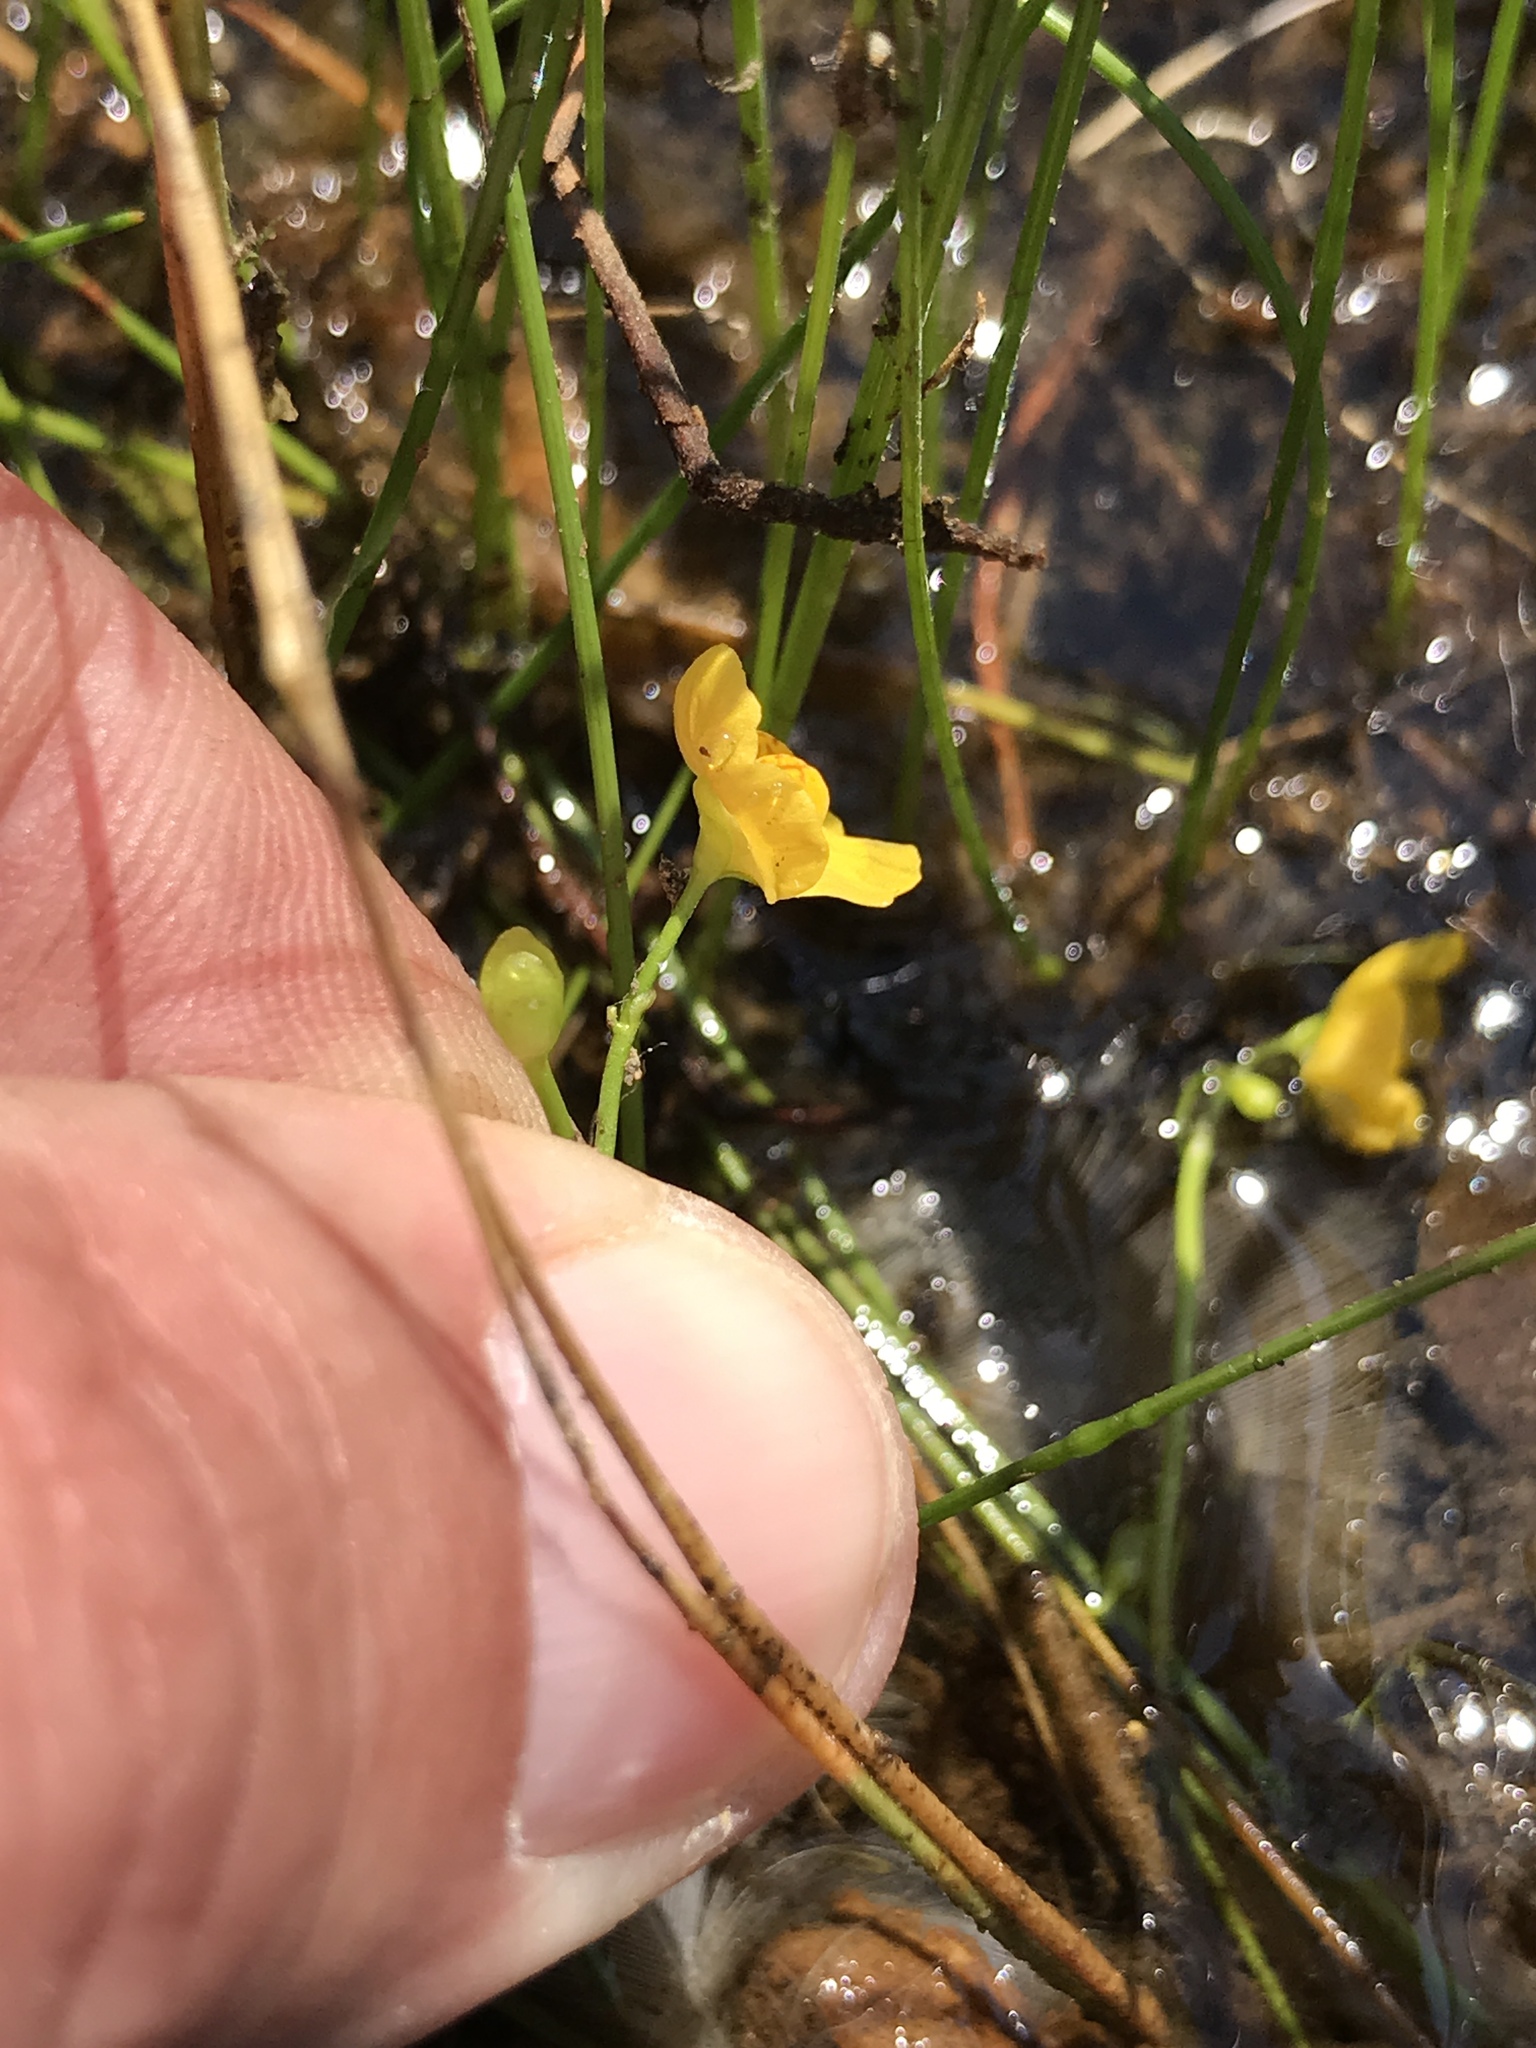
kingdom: Plantae
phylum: Tracheophyta
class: Magnoliopsida
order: Lamiales
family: Lentibulariaceae
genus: Utricularia
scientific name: Utricularia gibba
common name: Humped bladderwort
